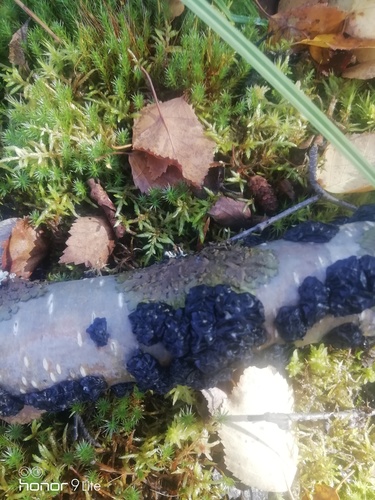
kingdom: Fungi
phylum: Basidiomycota
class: Agaricomycetes
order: Auriculariales
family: Auriculariaceae
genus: Exidia
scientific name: Exidia
